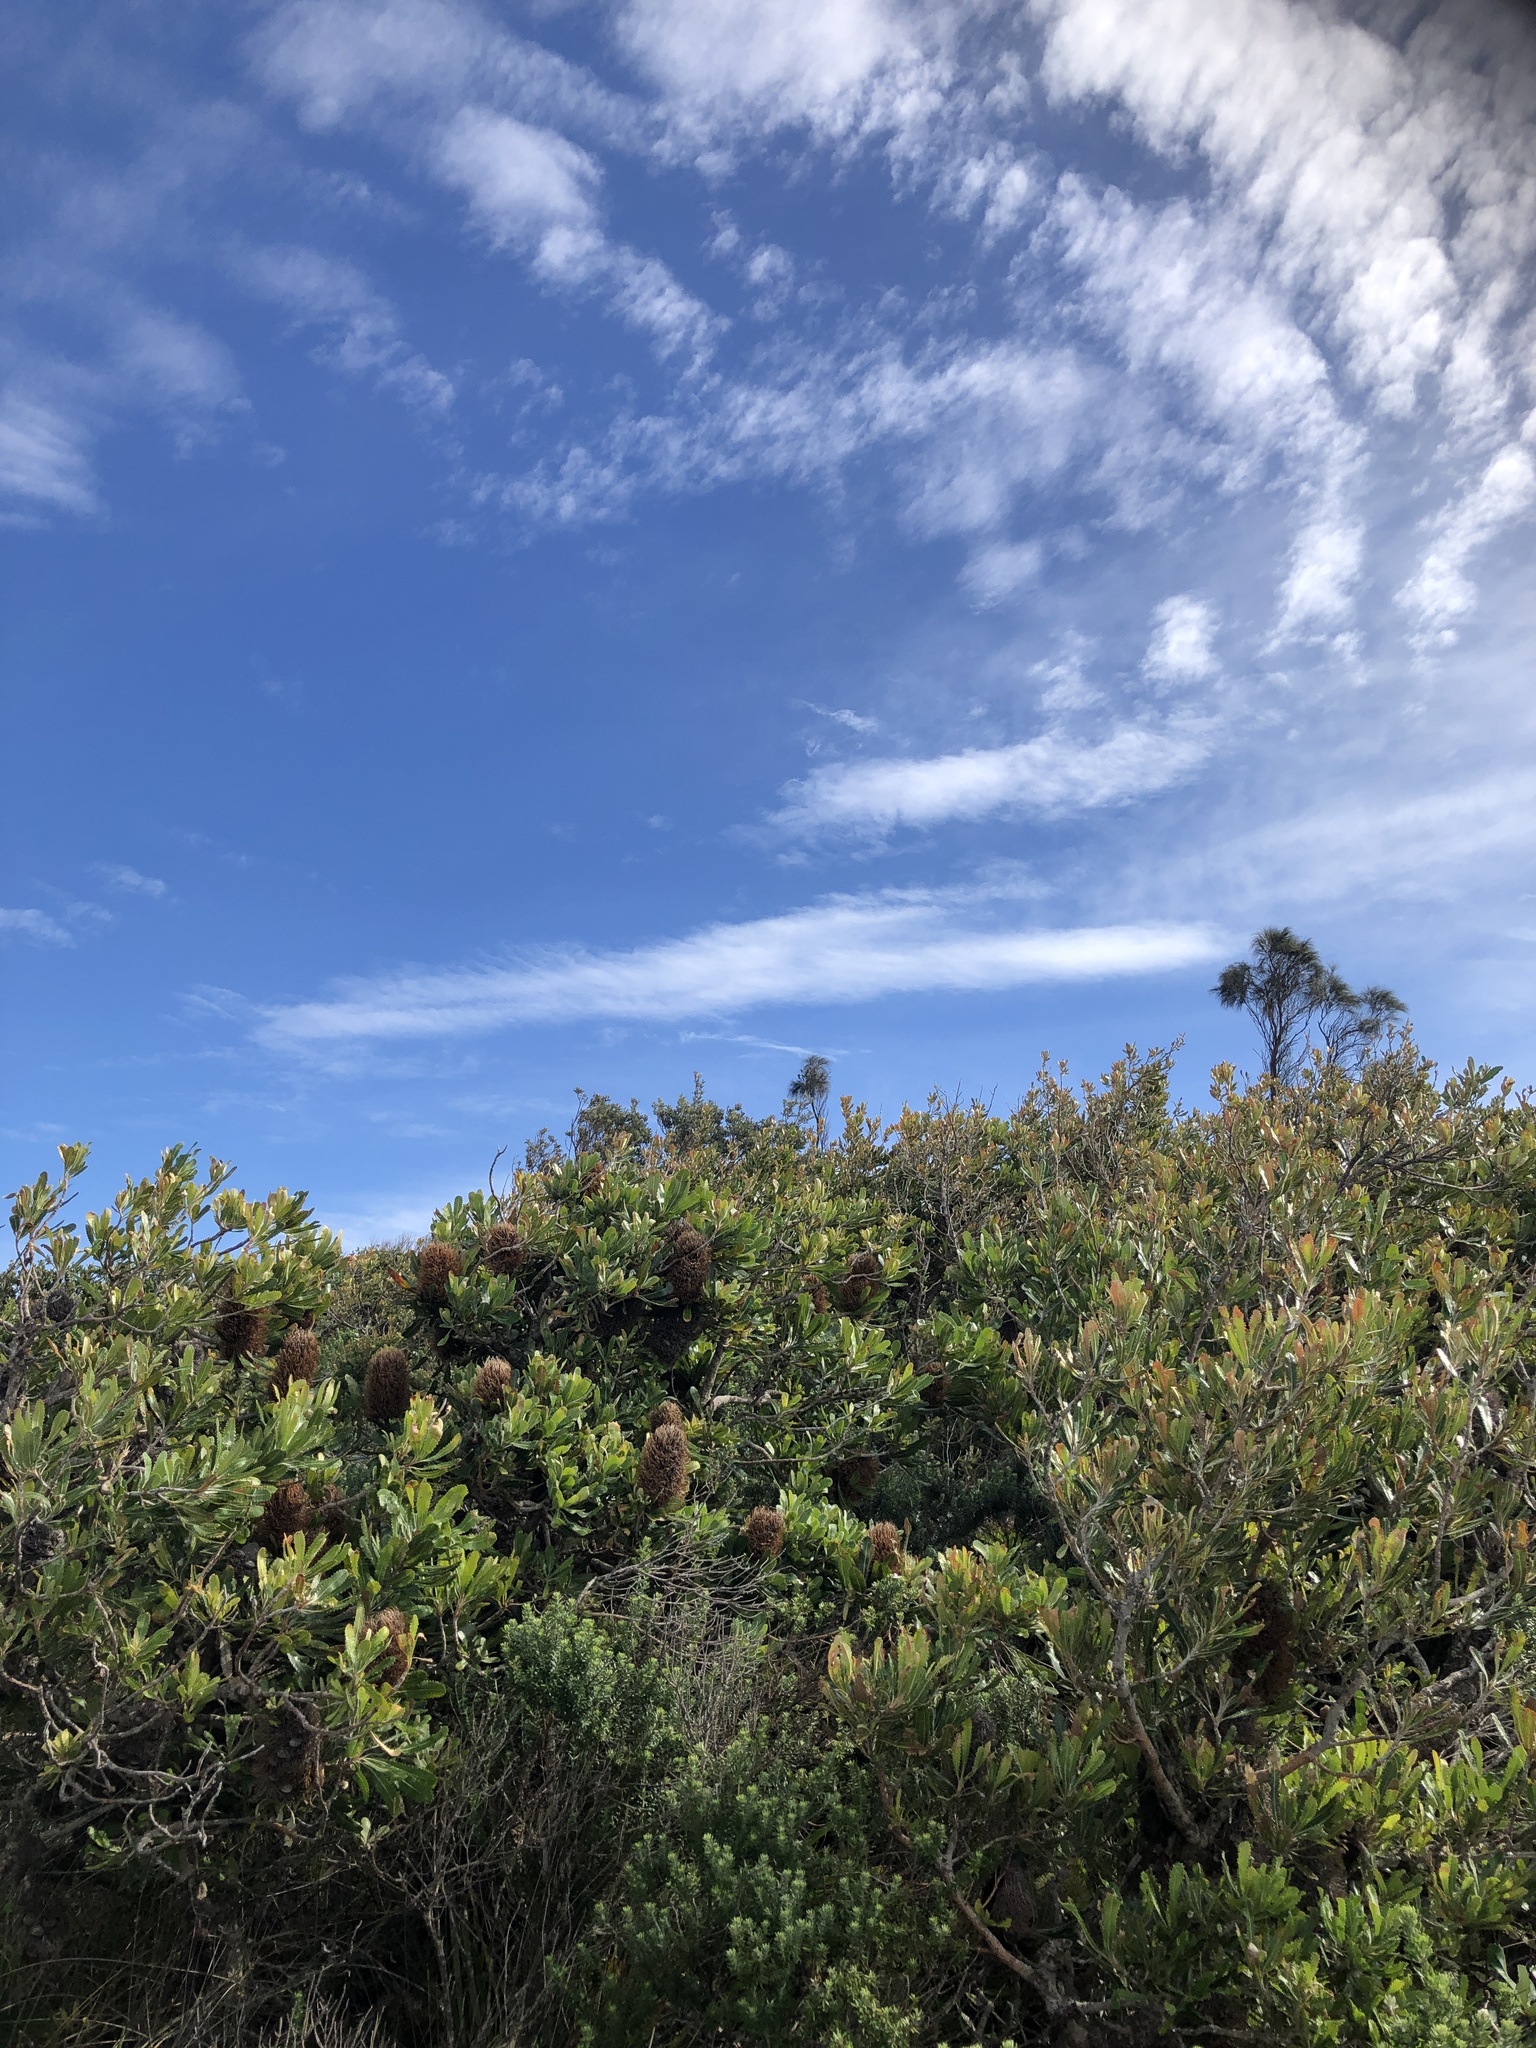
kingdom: Animalia
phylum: Chordata
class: Aves
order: Passeriformes
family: Estrildidae
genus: Neochmia
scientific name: Neochmia temporalis
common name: Red-browed finch
